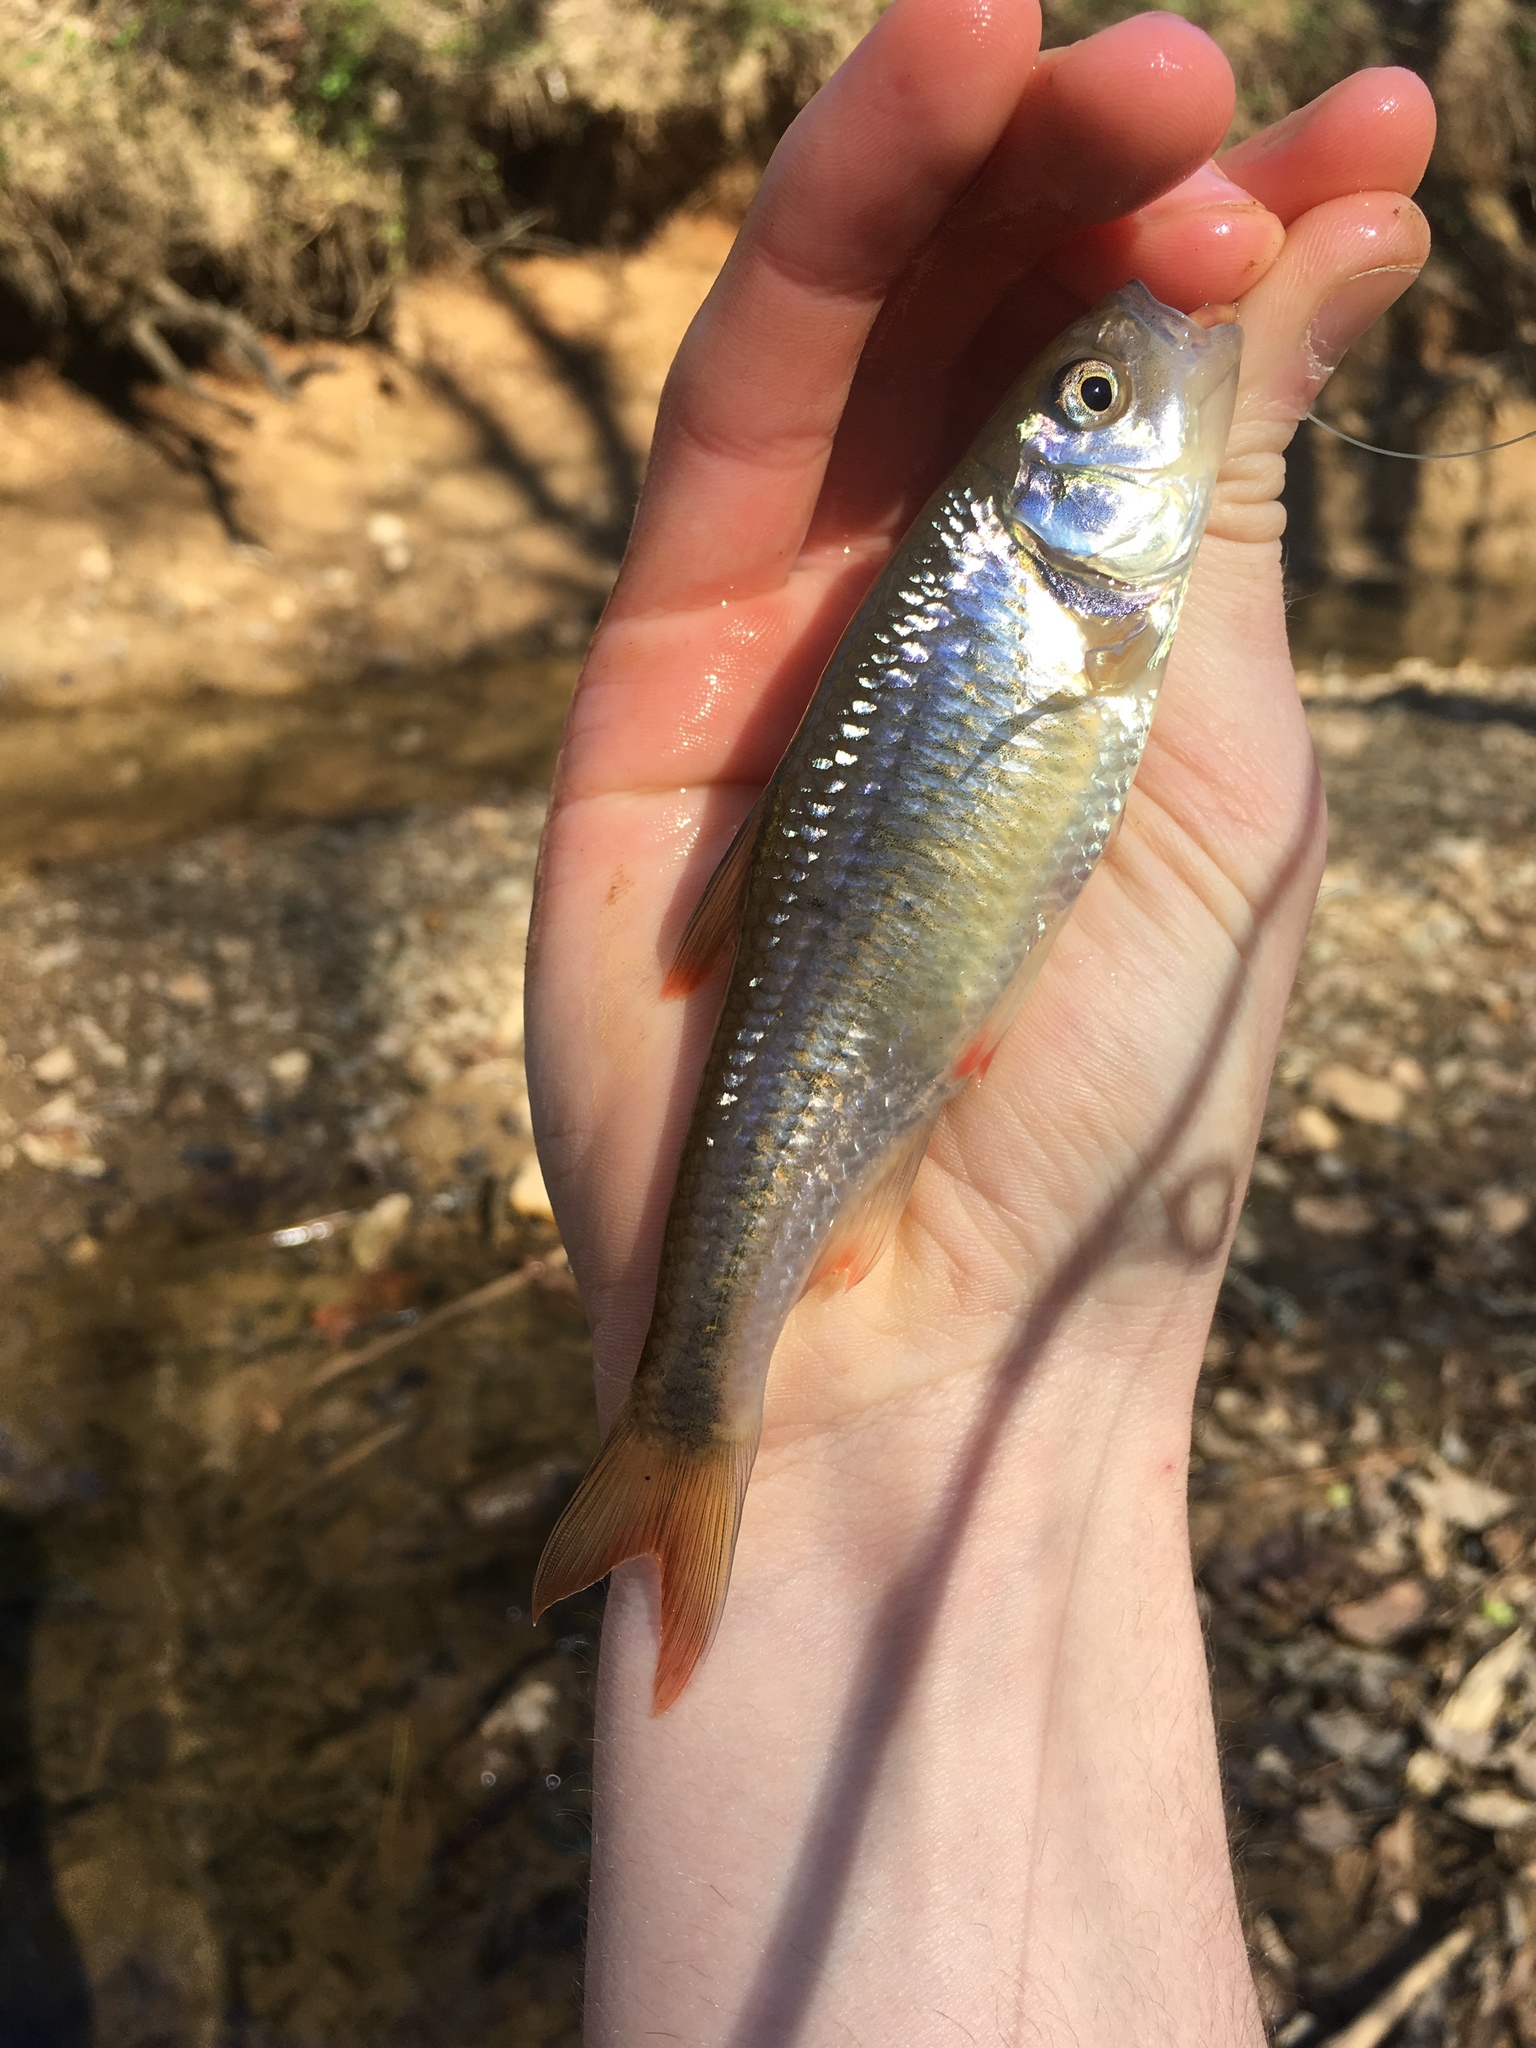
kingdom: Animalia
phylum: Chordata
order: Cypriniformes
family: Cyprinidae
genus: Luxilus
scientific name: Luxilus albeolus
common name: White shiner
